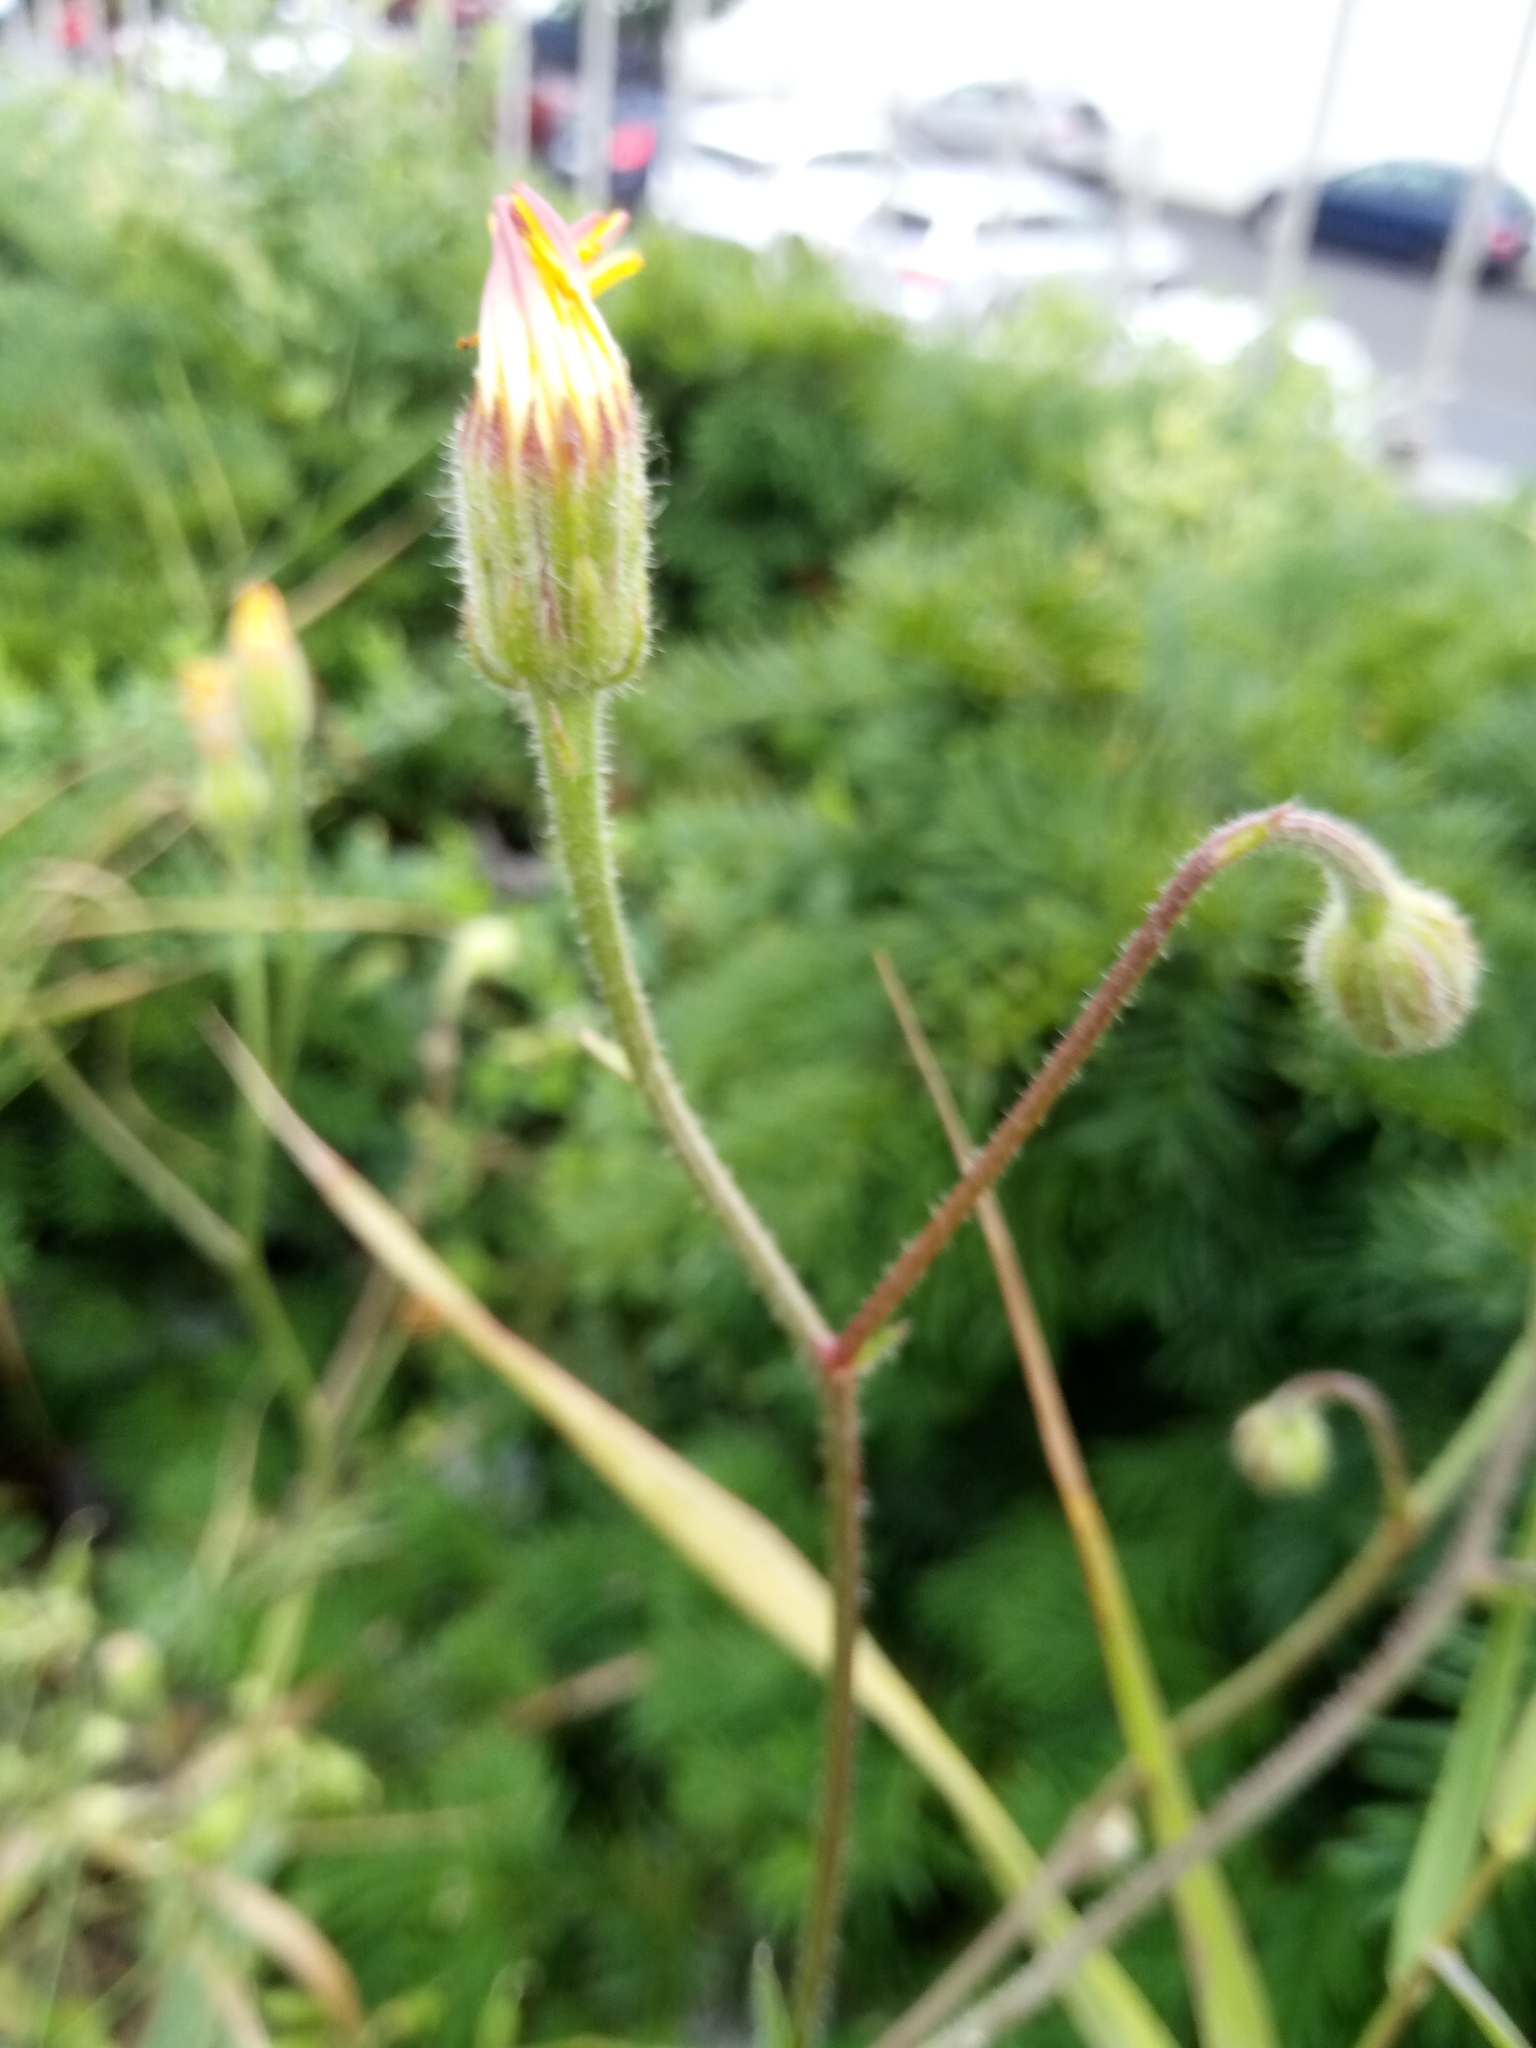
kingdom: Plantae
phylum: Tracheophyta
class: Magnoliopsida
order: Asterales
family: Asteraceae
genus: Crepis
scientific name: Crepis foetida
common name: Stinking hawk's-beard
